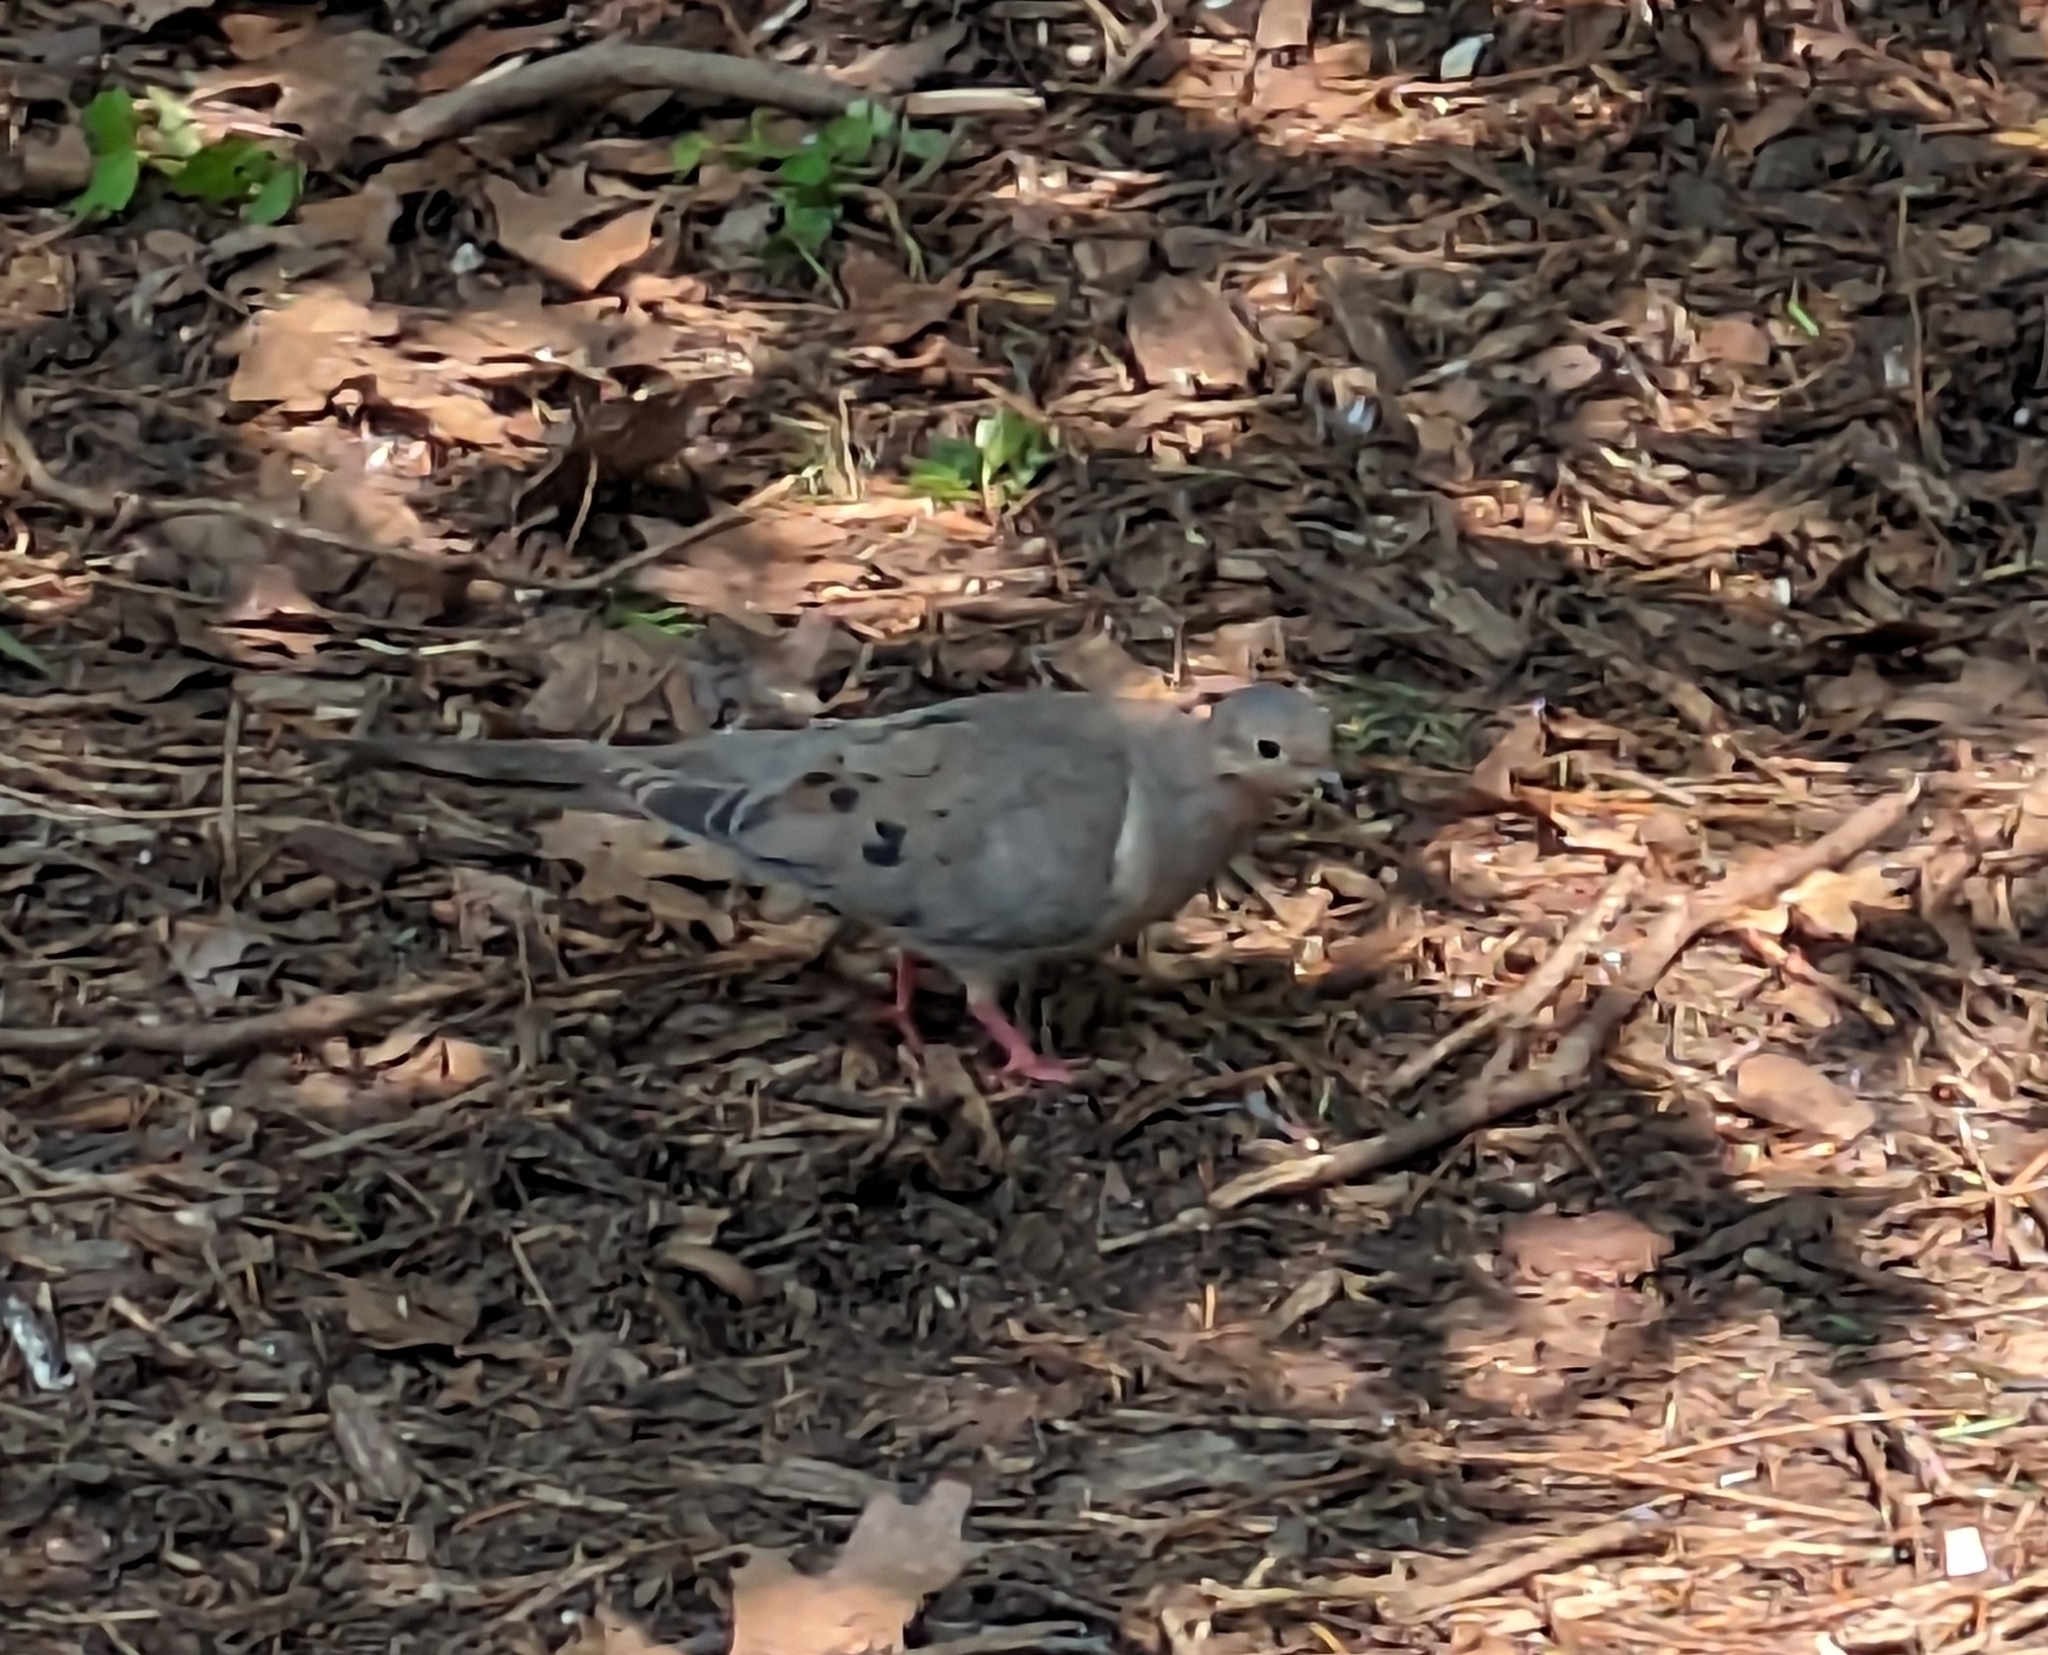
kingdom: Animalia
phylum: Chordata
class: Aves
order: Columbiformes
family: Columbidae
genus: Zenaida
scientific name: Zenaida macroura
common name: Mourning dove
